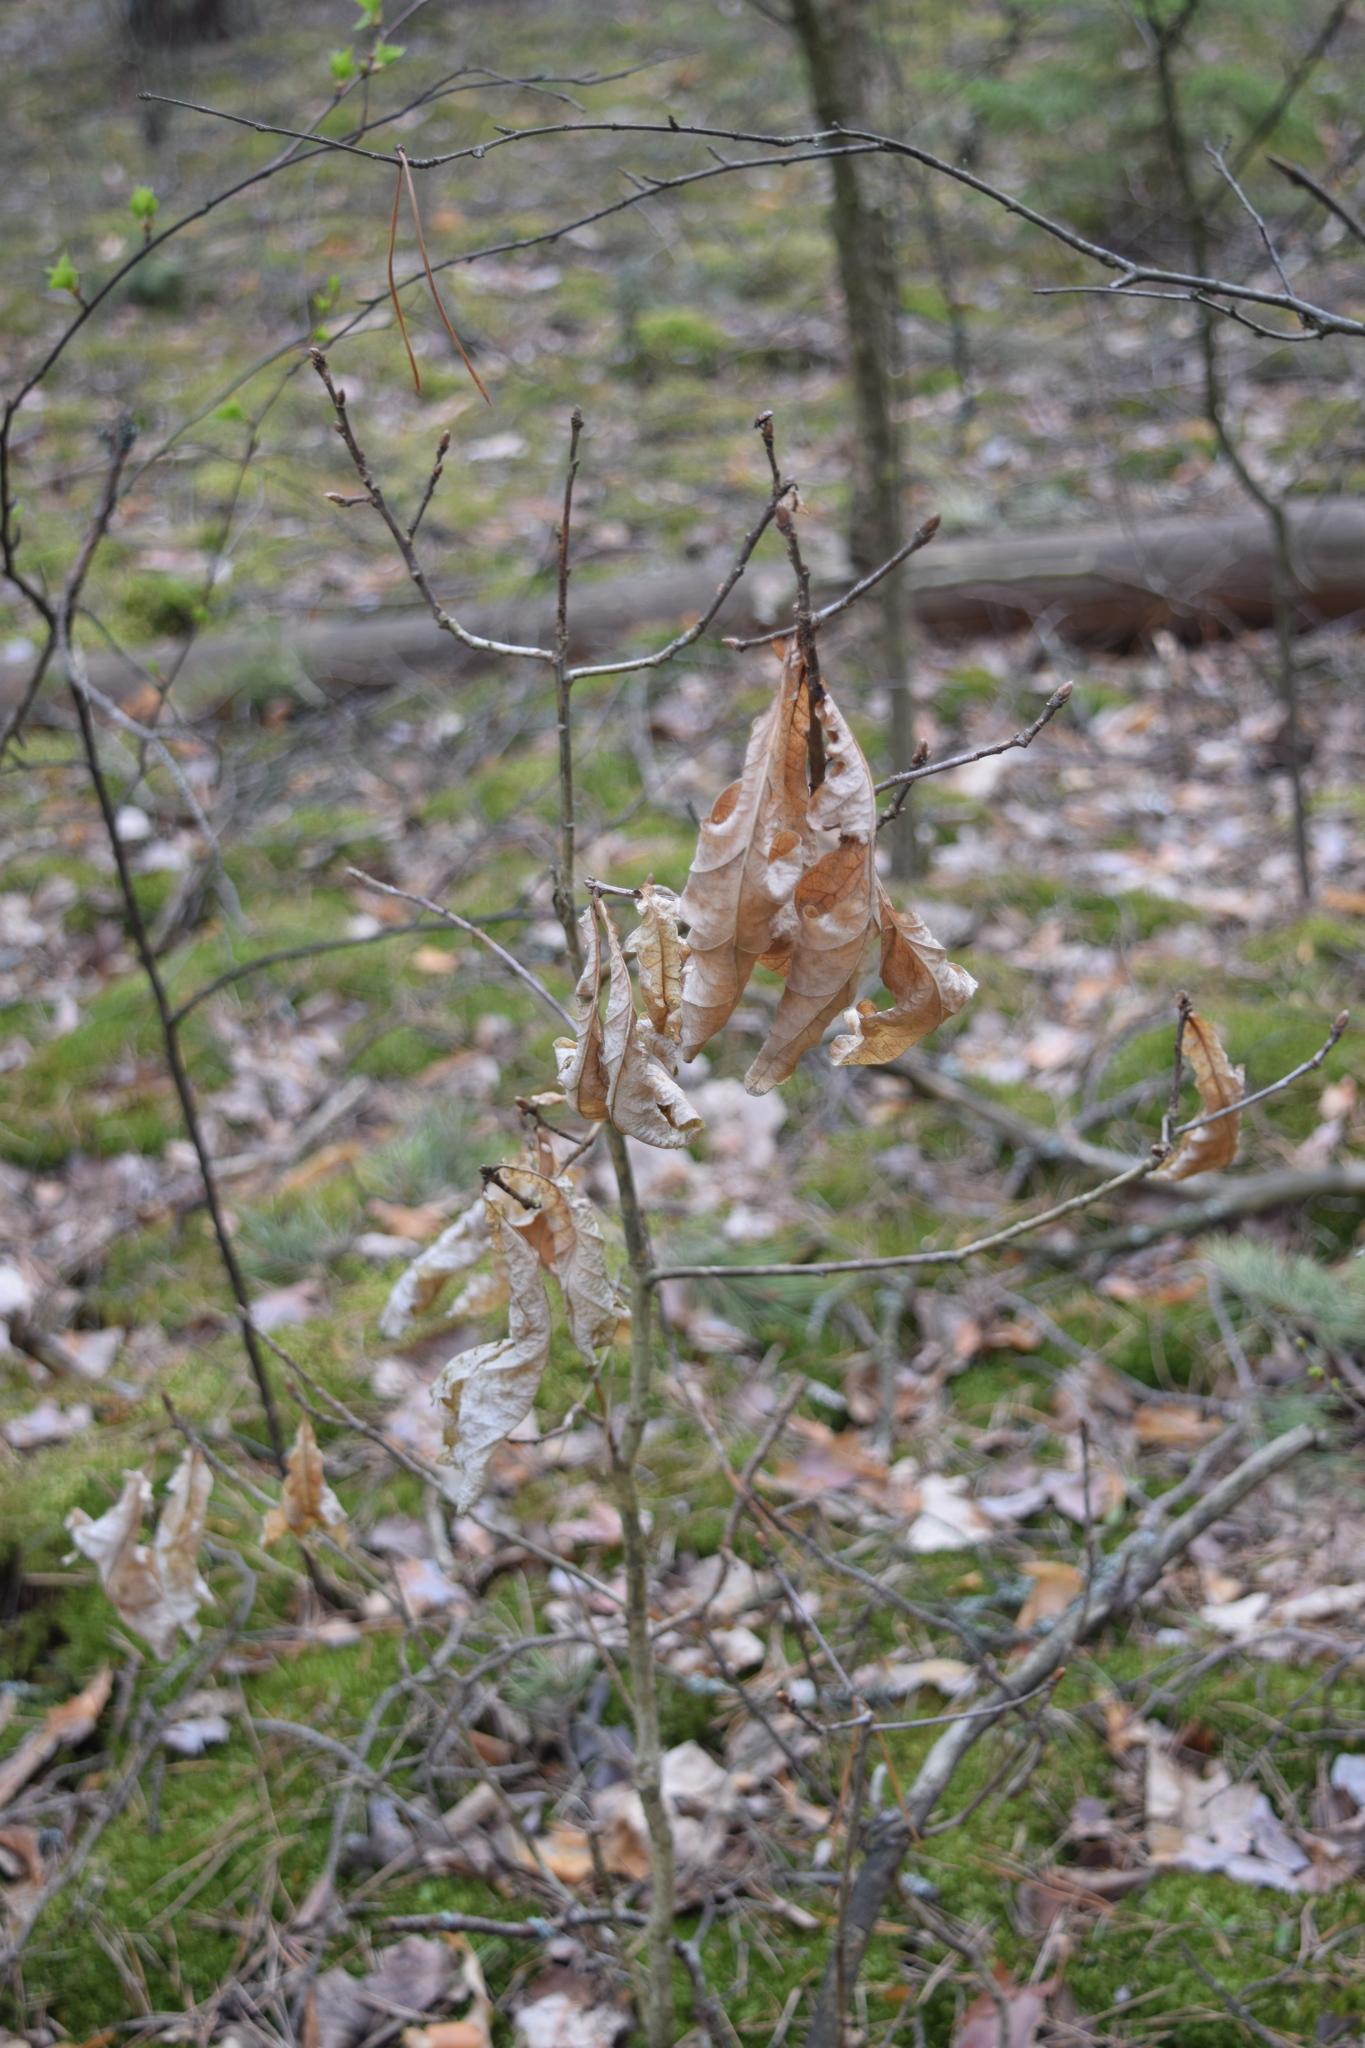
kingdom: Plantae
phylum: Tracheophyta
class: Magnoliopsida
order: Fagales
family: Fagaceae
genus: Quercus
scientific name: Quercus robur
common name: Pedunculate oak
